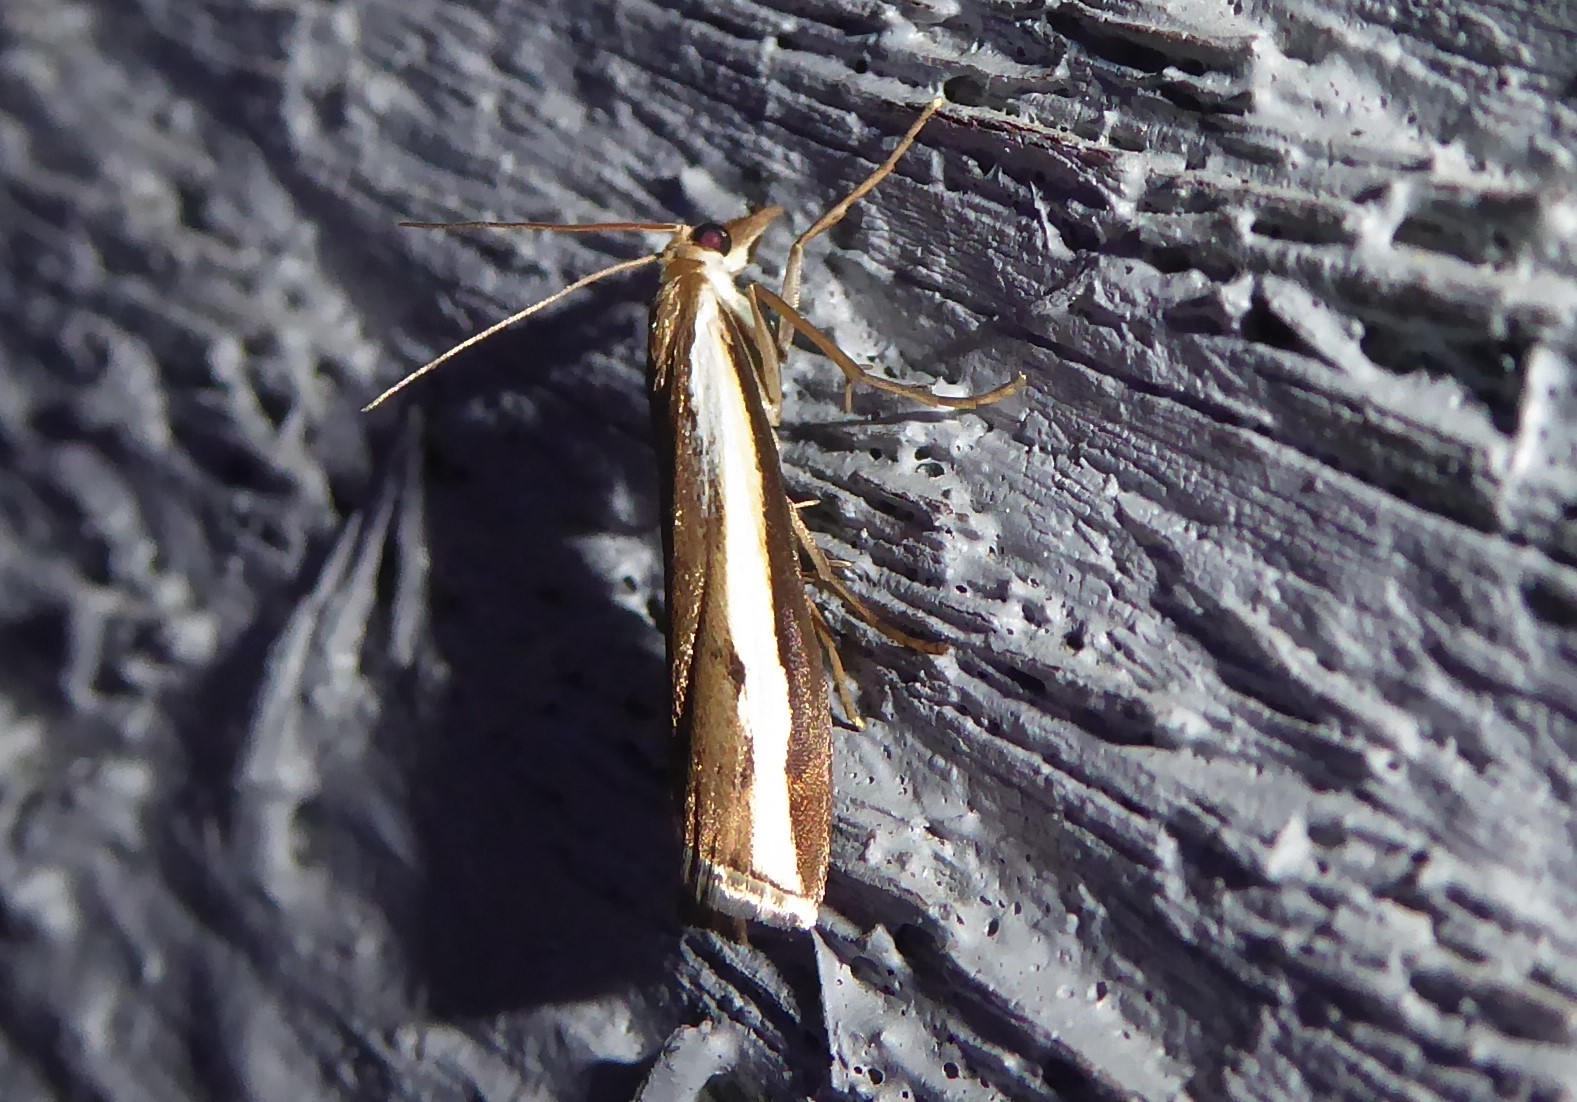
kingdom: Animalia
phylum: Arthropoda
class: Insecta
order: Lepidoptera
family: Crambidae
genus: Orocrambus
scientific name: Orocrambus flexuosellus
